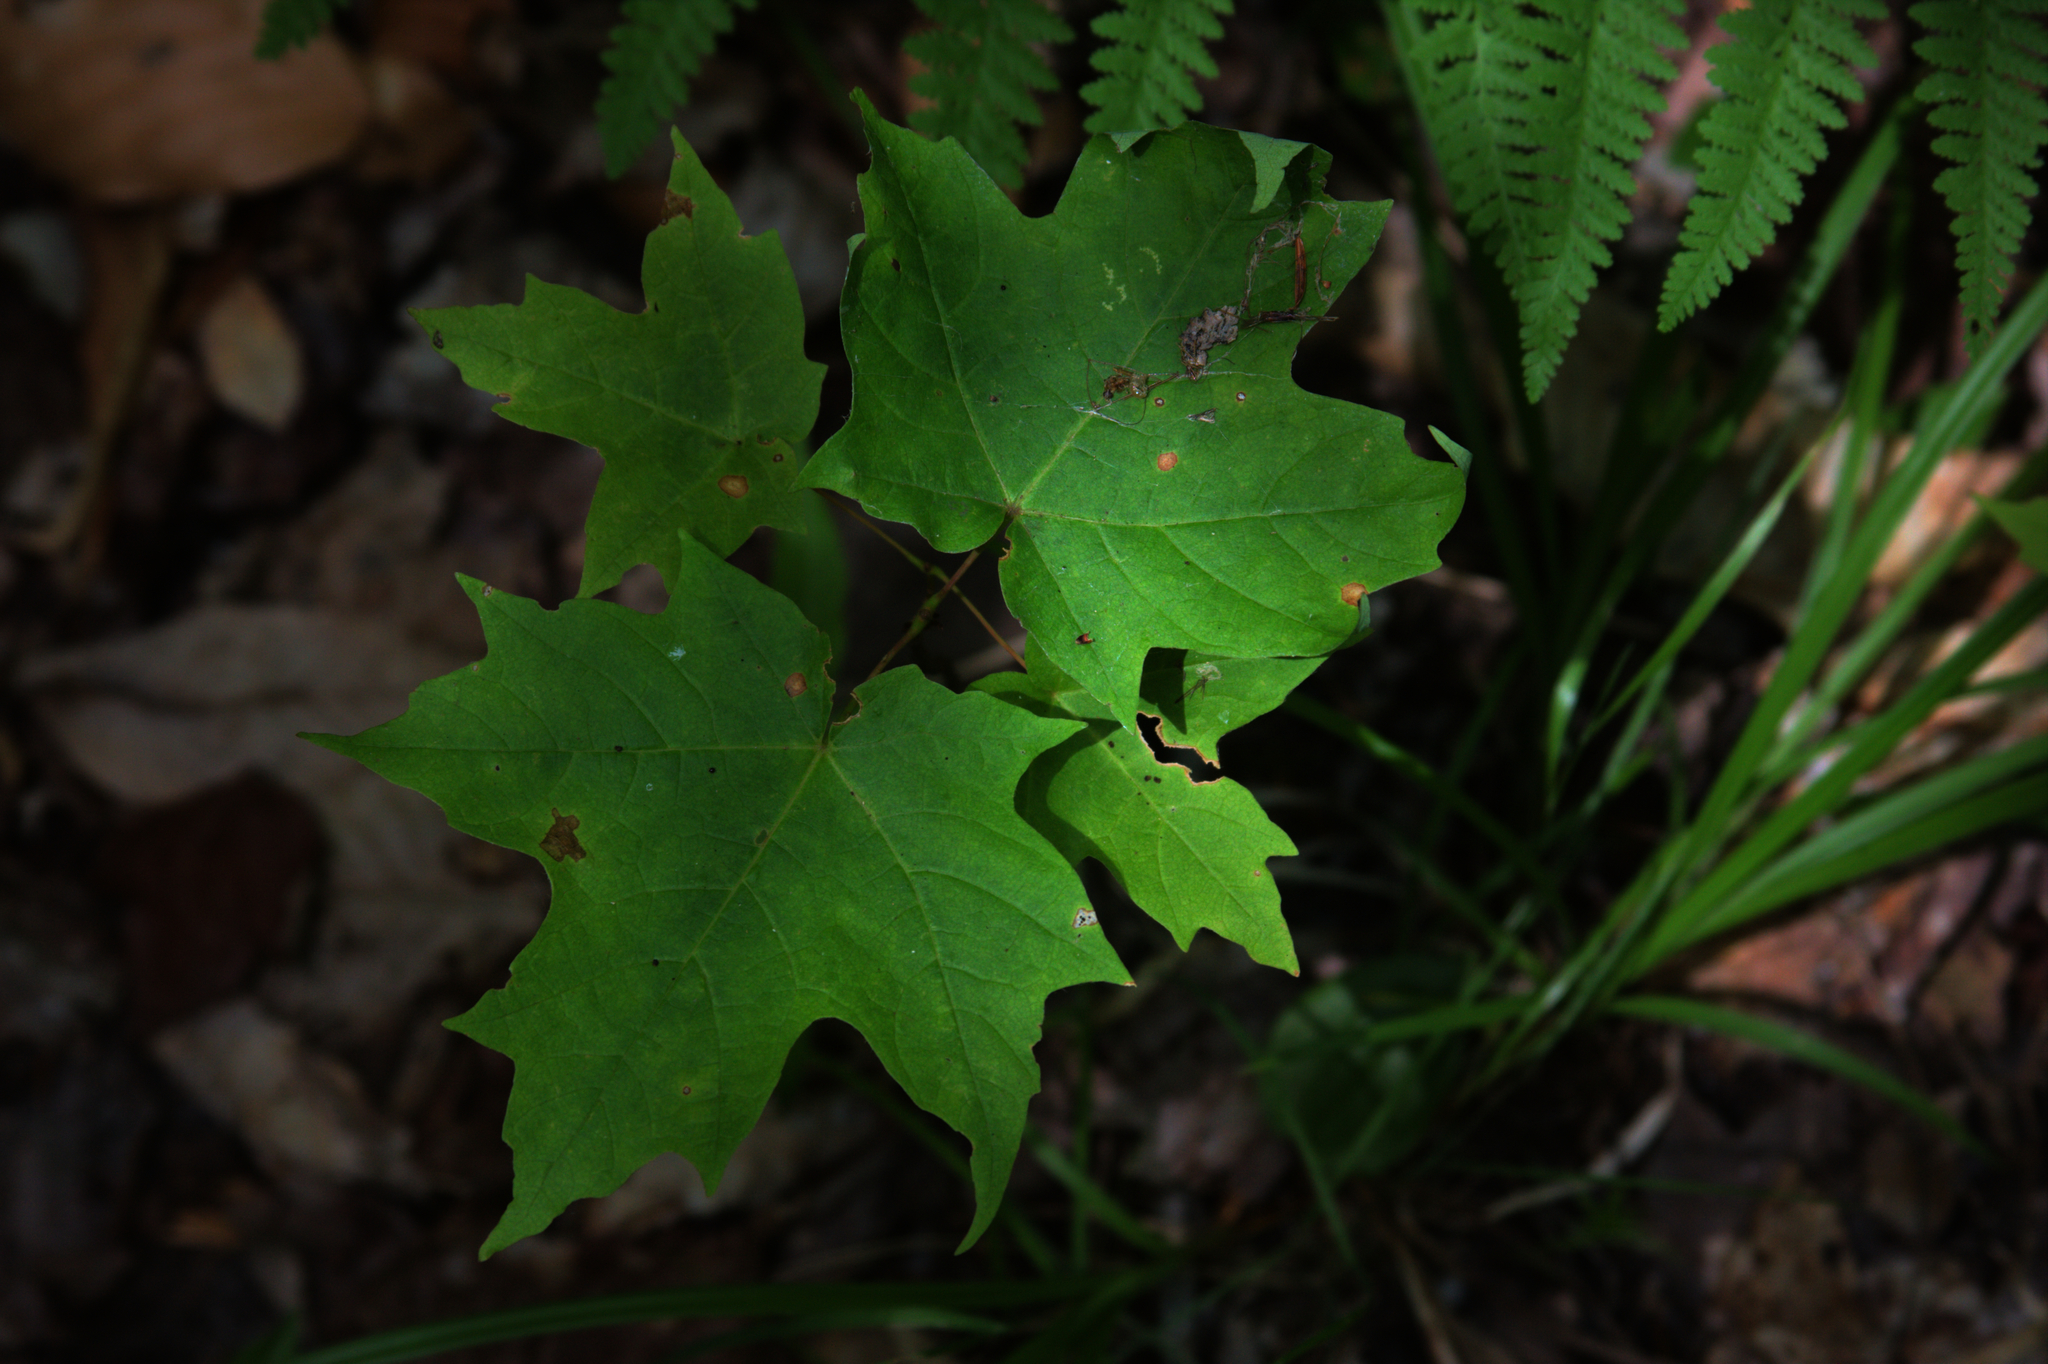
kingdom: Plantae
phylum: Tracheophyta
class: Magnoliopsida
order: Sapindales
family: Sapindaceae
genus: Acer
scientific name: Acer saccharum
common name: Sugar maple
